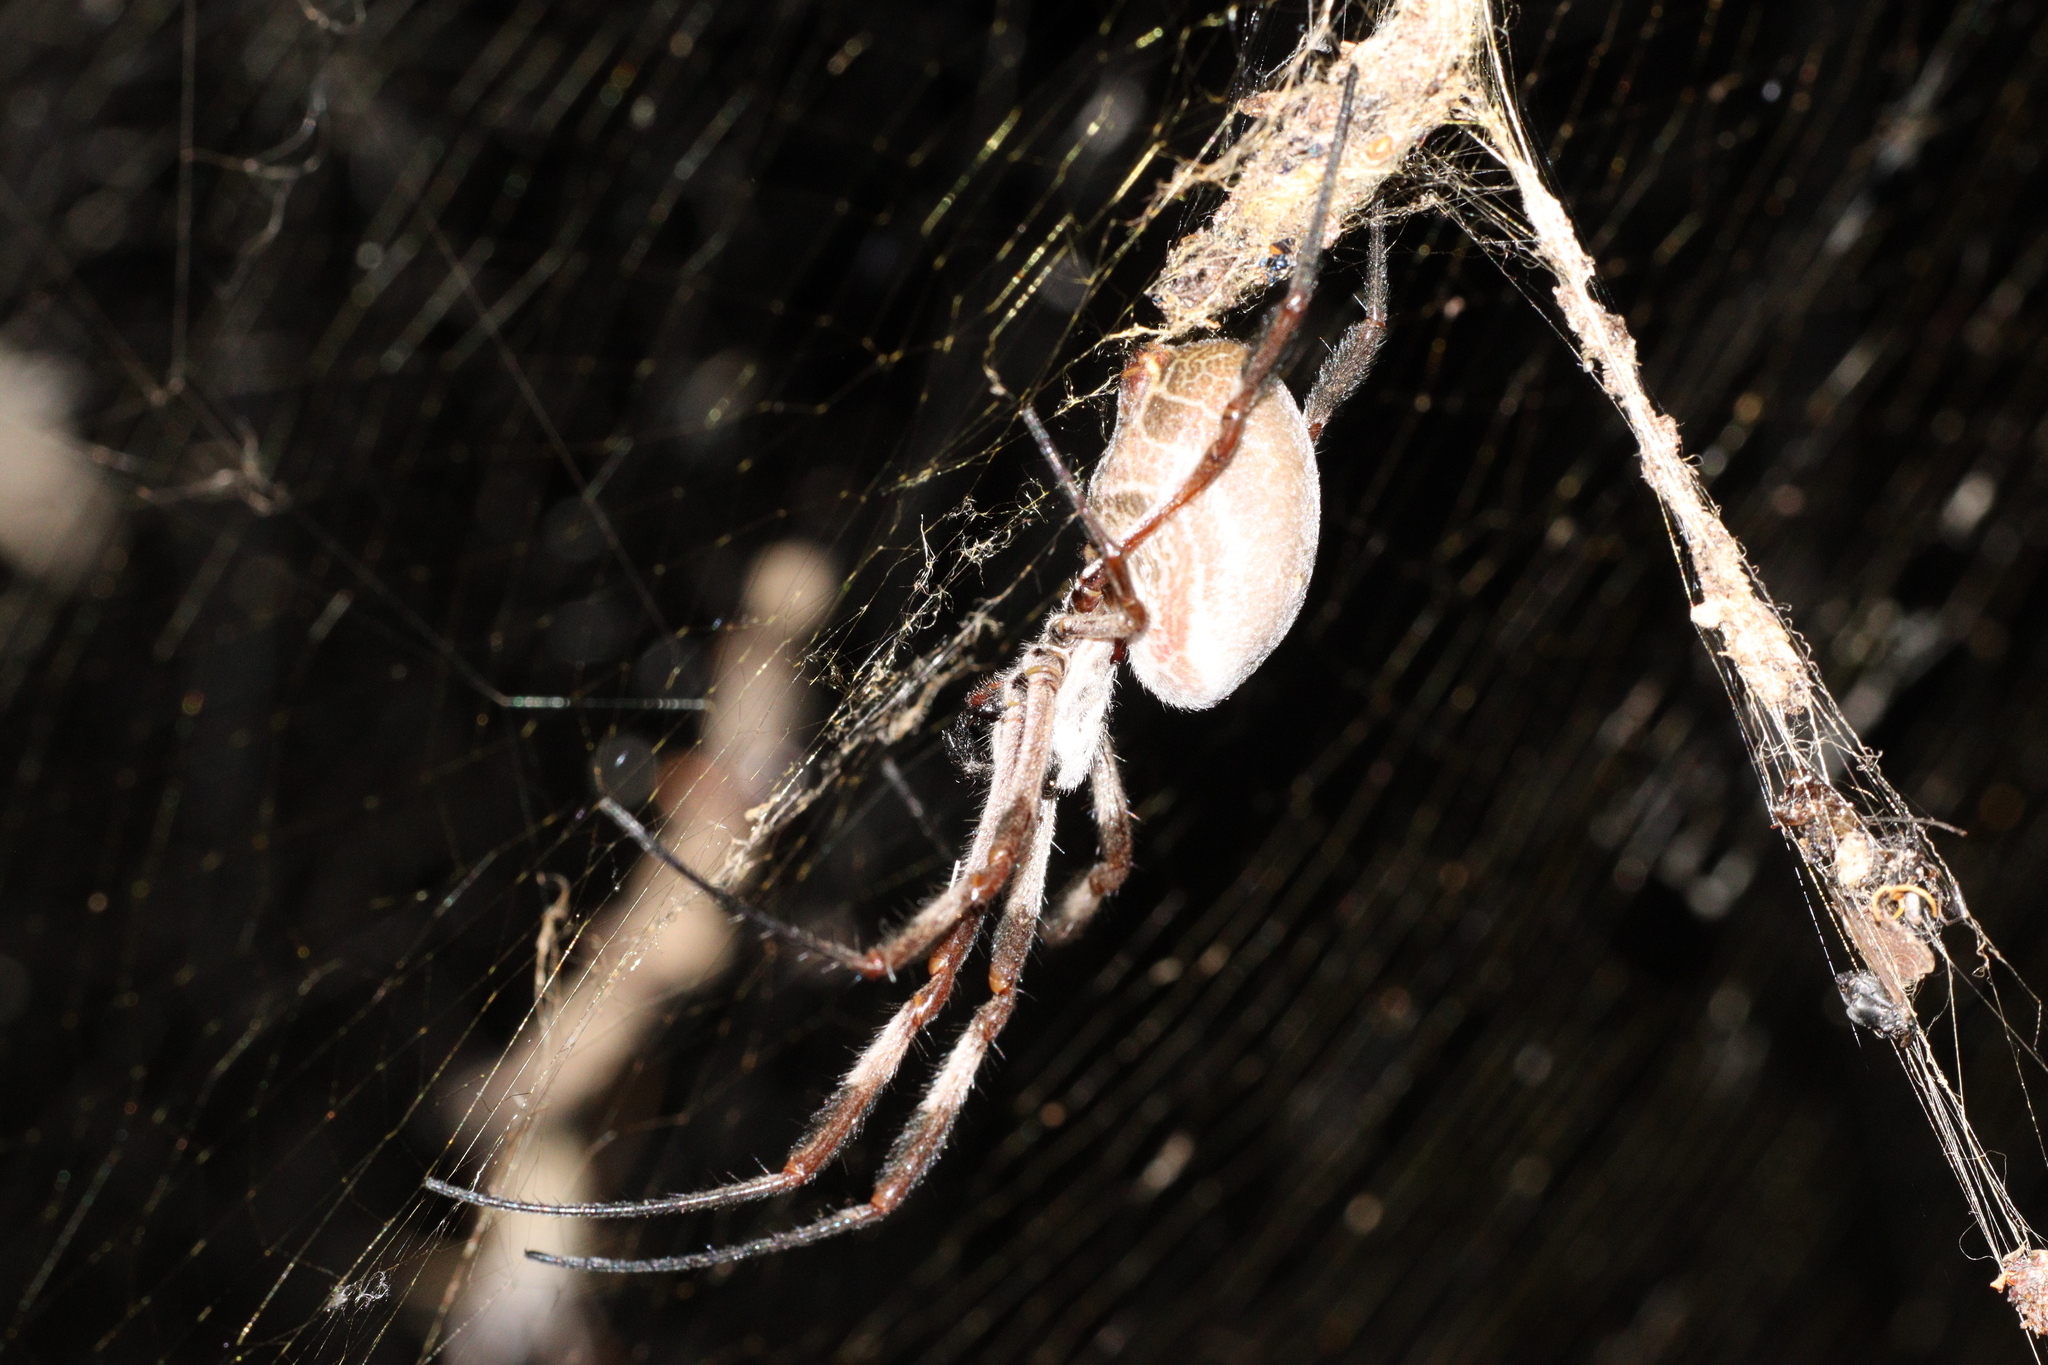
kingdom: Animalia
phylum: Arthropoda
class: Arachnida
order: Araneae
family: Araneidae
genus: Trichonephila
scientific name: Trichonephila edulis
